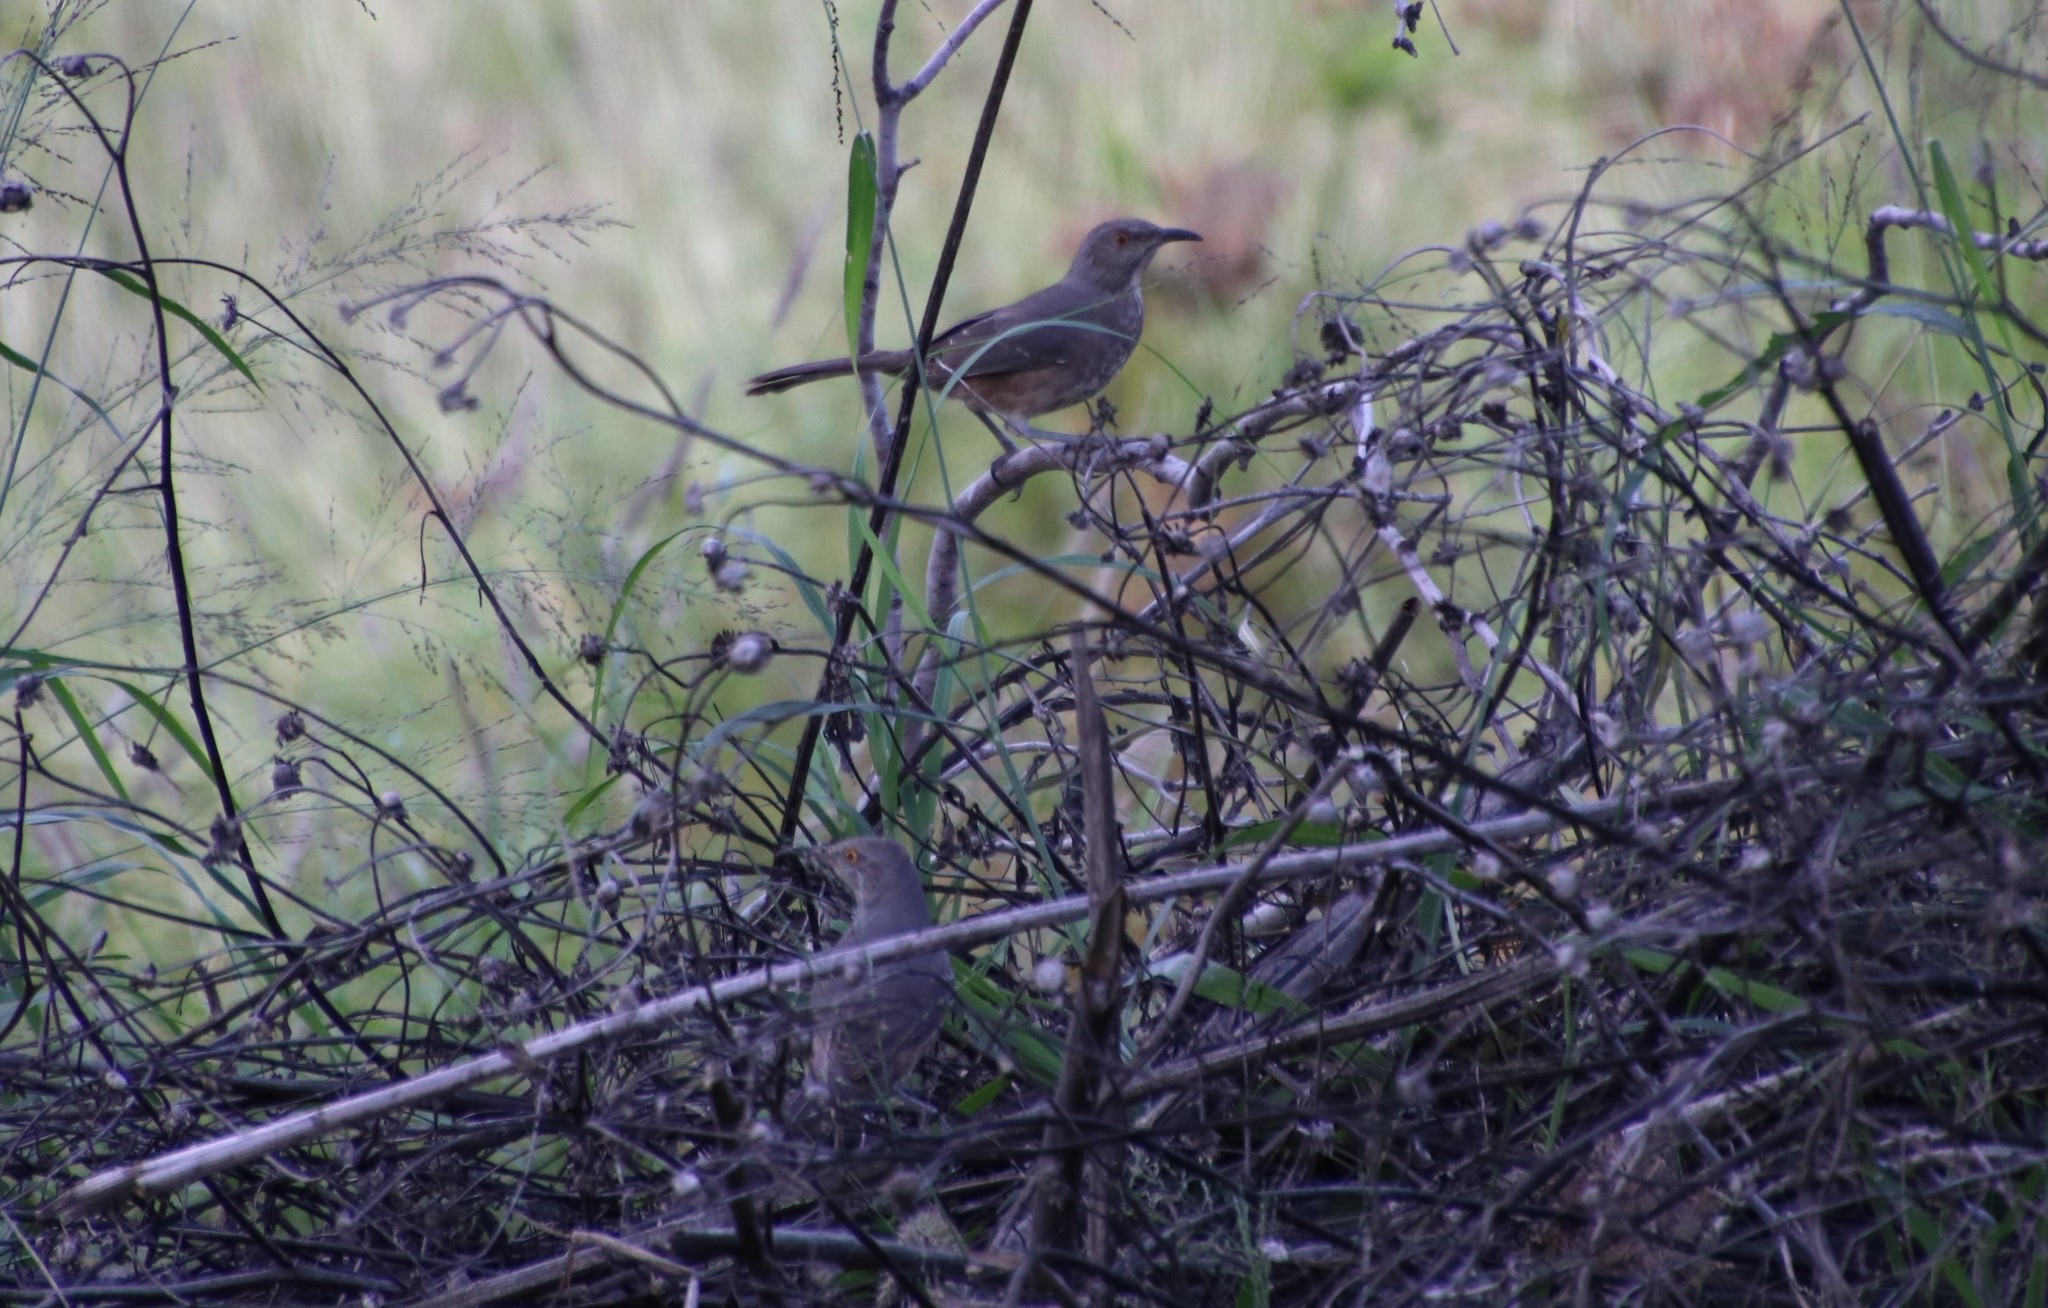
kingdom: Animalia
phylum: Chordata
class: Aves
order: Passeriformes
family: Mimidae
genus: Toxostoma
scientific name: Toxostoma curvirostre
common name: Curve-billed thrasher
